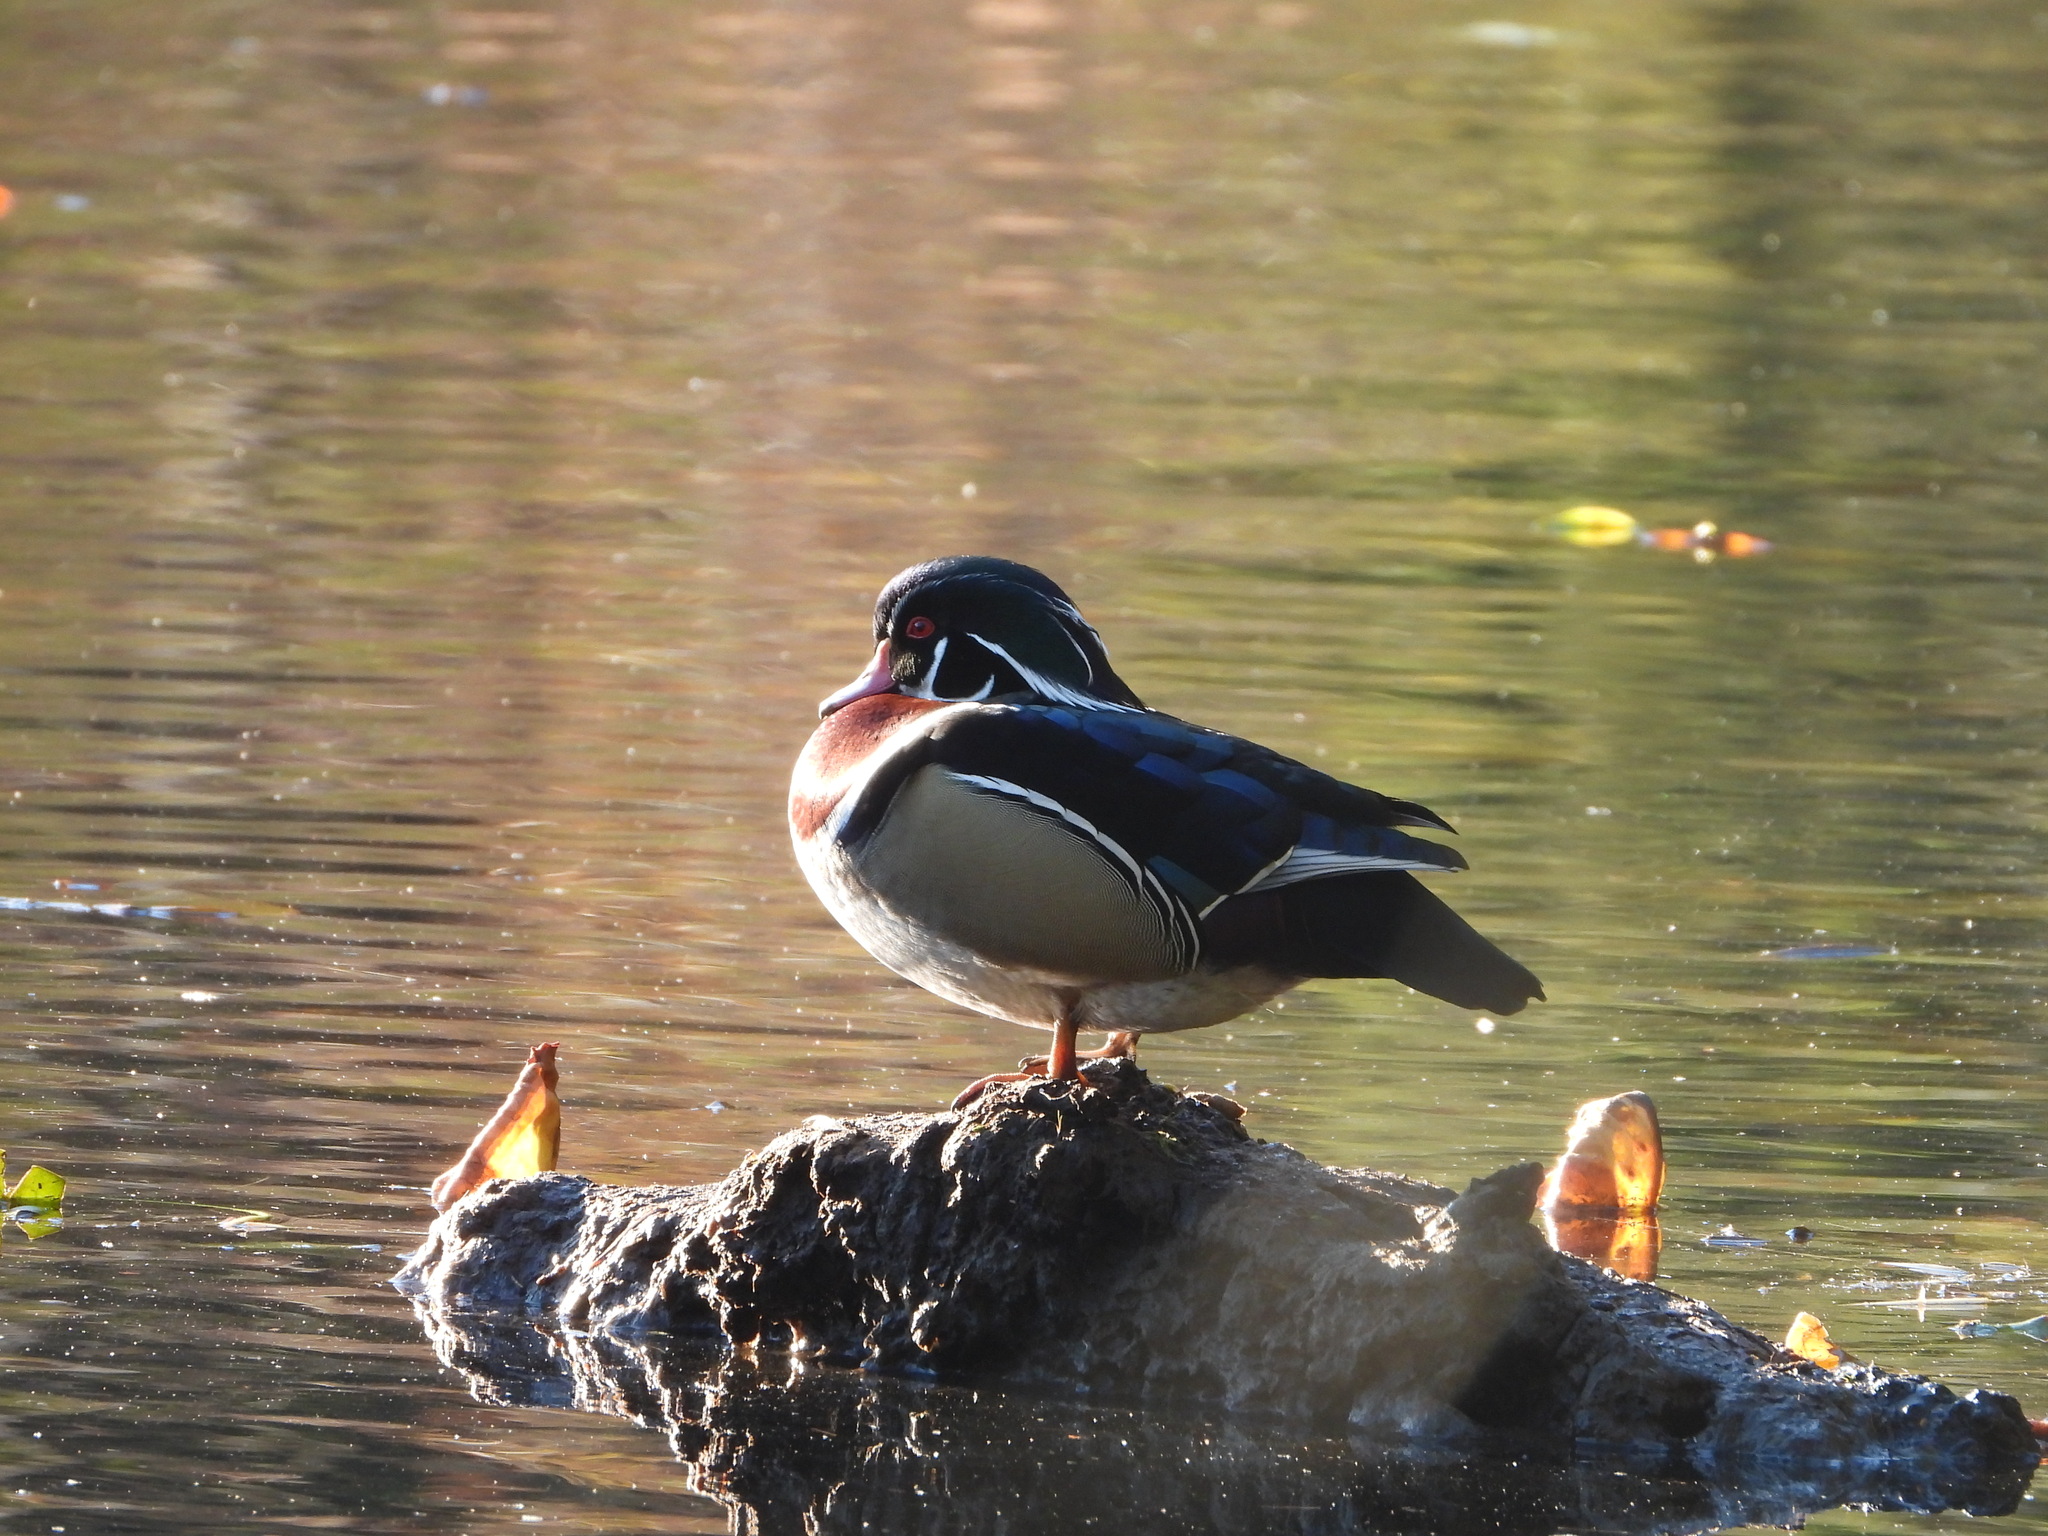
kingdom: Animalia
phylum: Chordata
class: Aves
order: Anseriformes
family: Anatidae
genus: Aix
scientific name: Aix sponsa
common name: Wood duck
